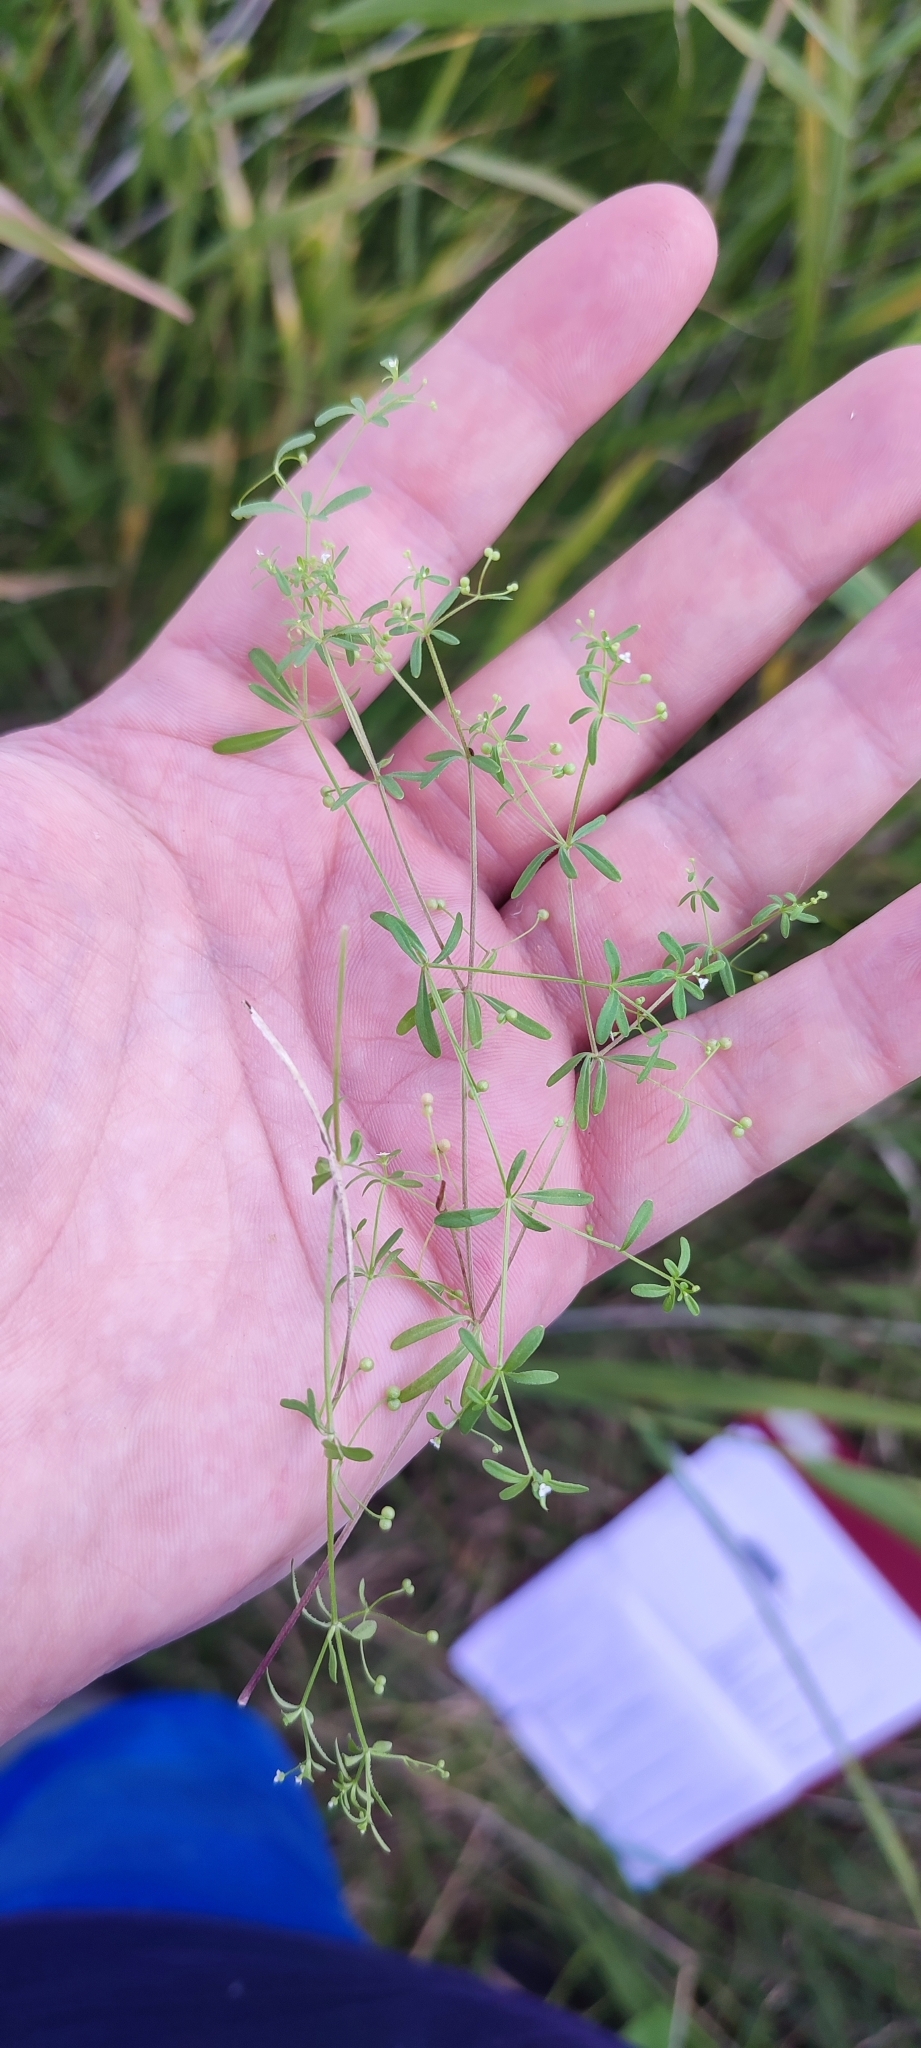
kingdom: Plantae
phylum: Tracheophyta
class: Magnoliopsida
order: Gentianales
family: Rubiaceae
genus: Galium
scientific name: Galium trifidum
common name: Small bedstraw
